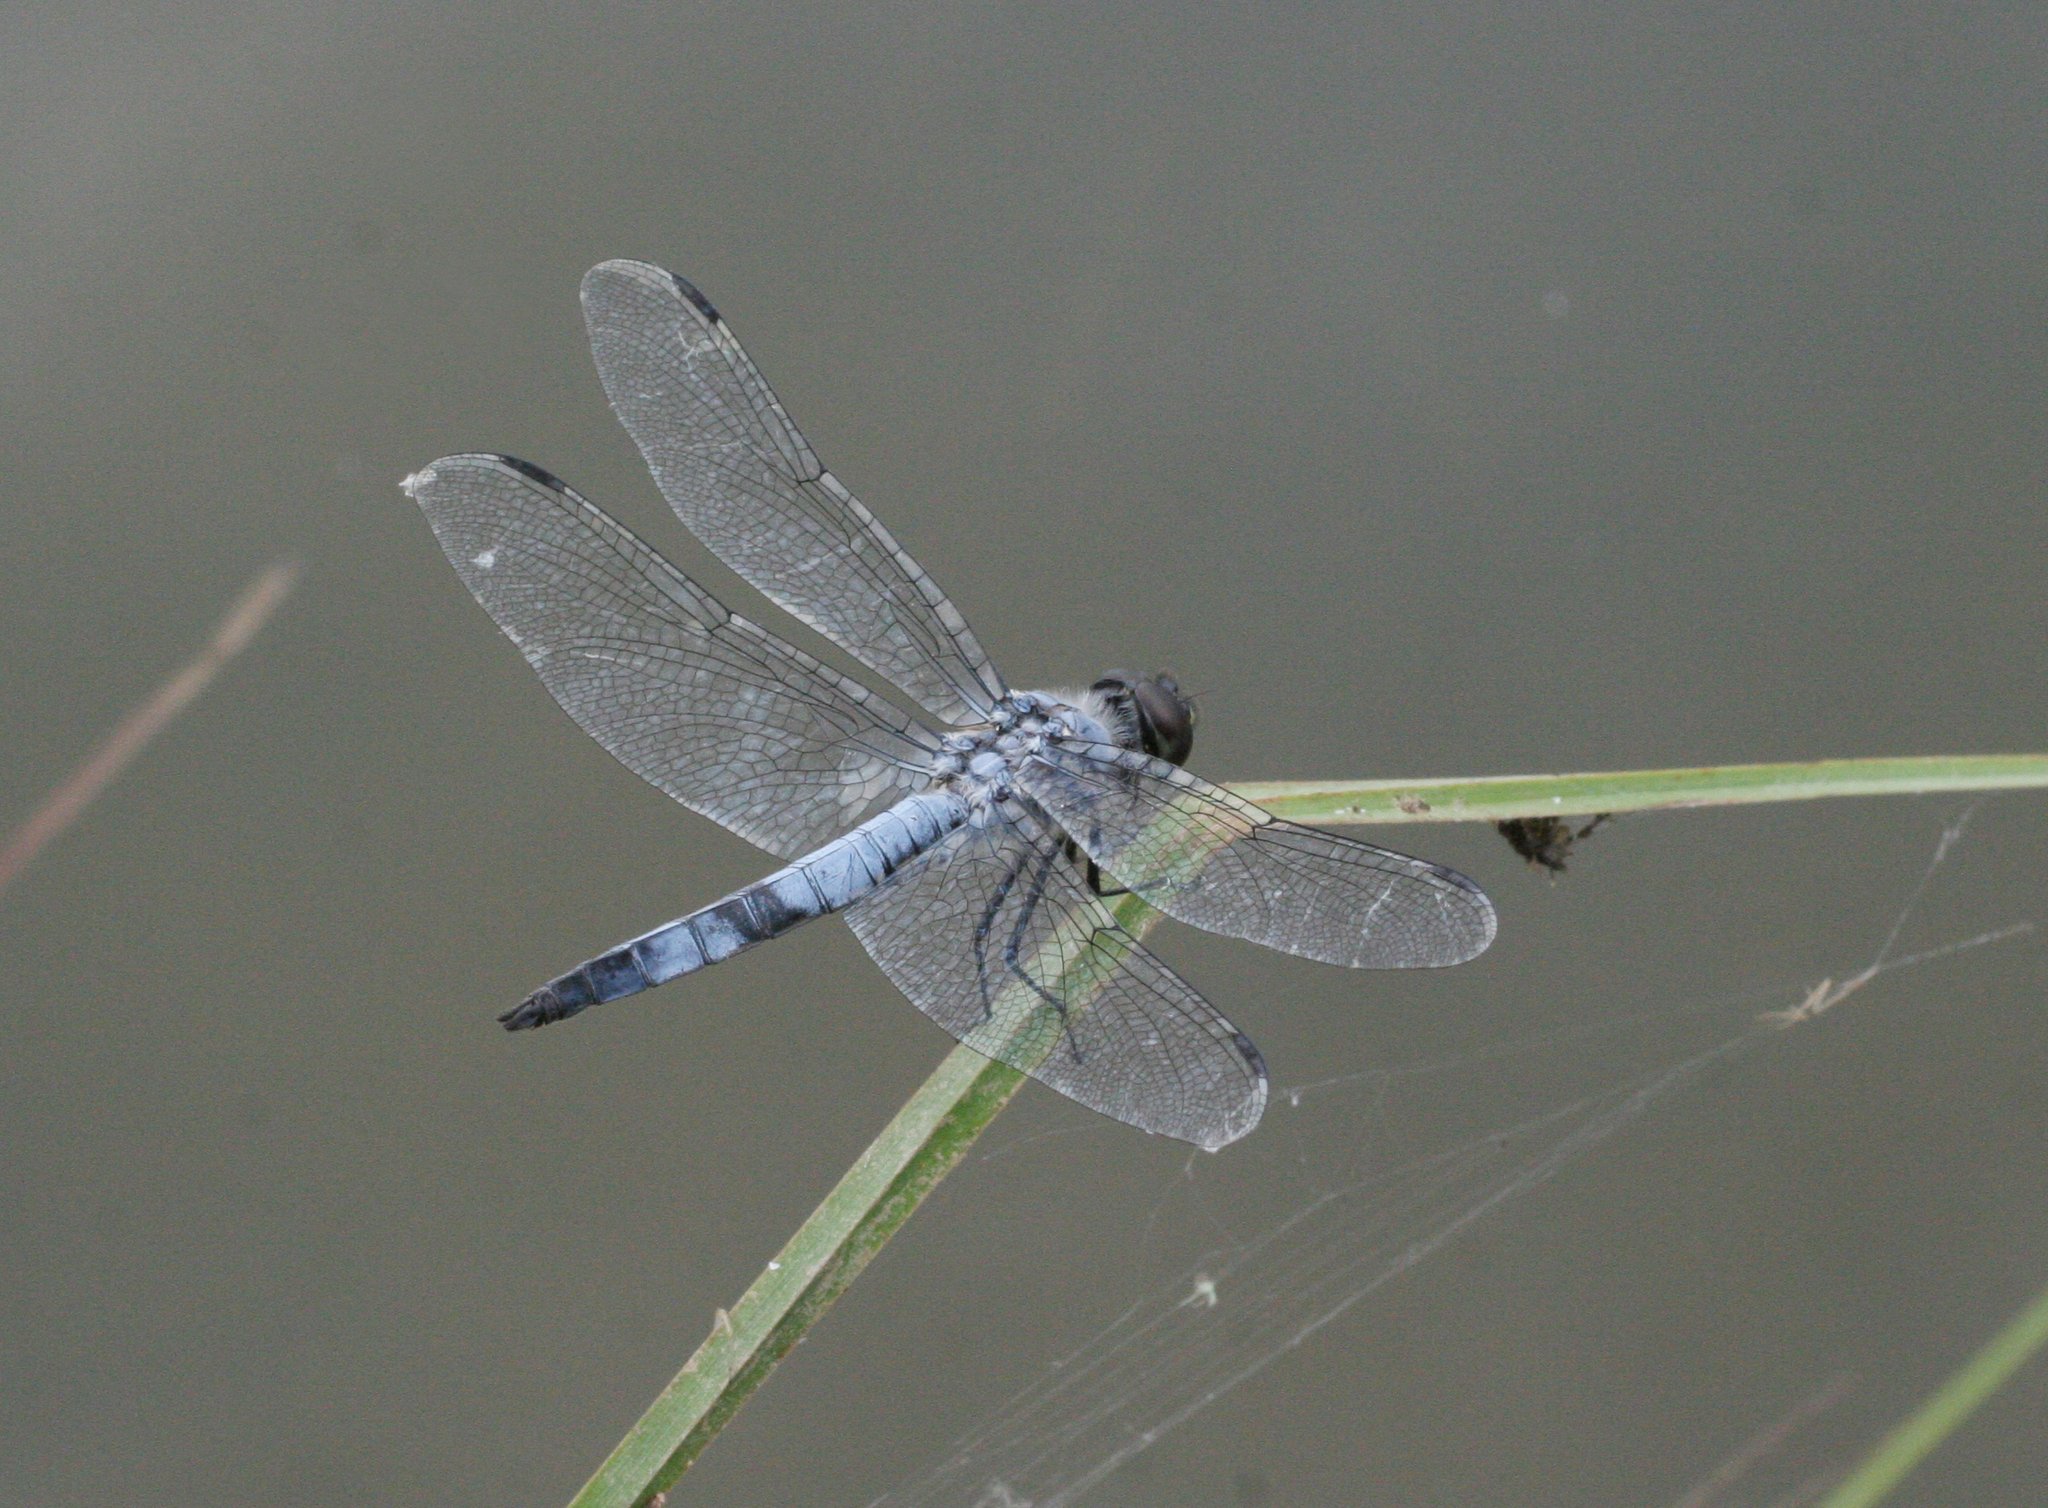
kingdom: Animalia
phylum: Arthropoda
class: Insecta
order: Odonata
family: Libellulidae
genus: Deielia
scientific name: Deielia phaon
